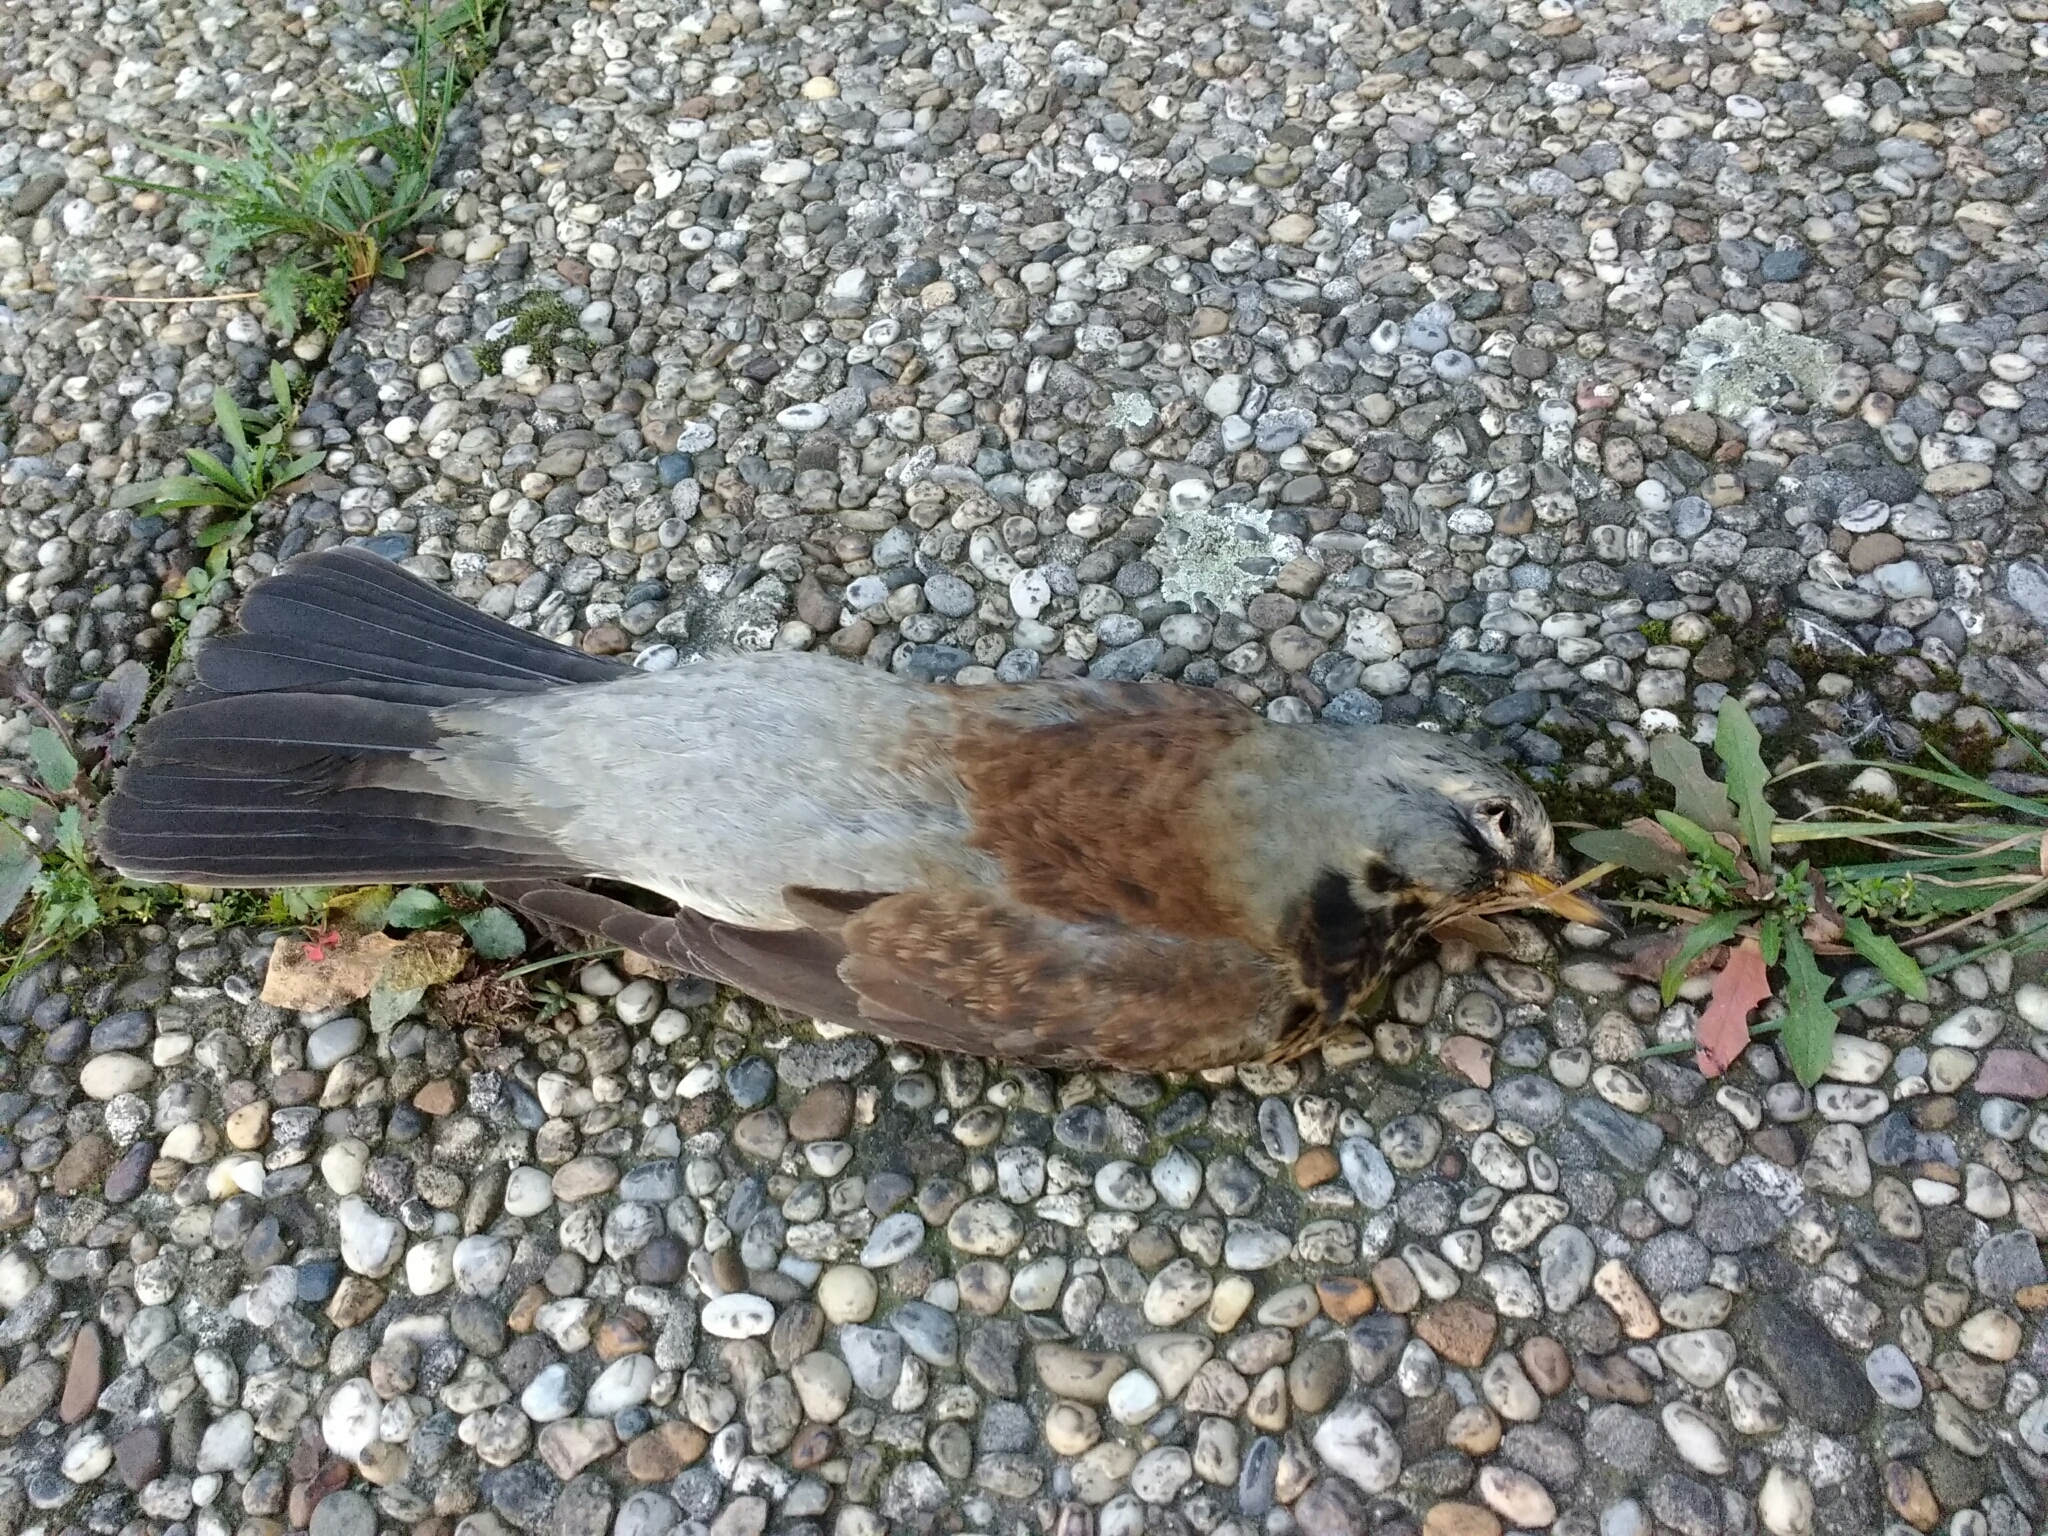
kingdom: Animalia
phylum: Chordata
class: Aves
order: Passeriformes
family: Turdidae
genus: Turdus
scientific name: Turdus pilaris
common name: Fieldfare
